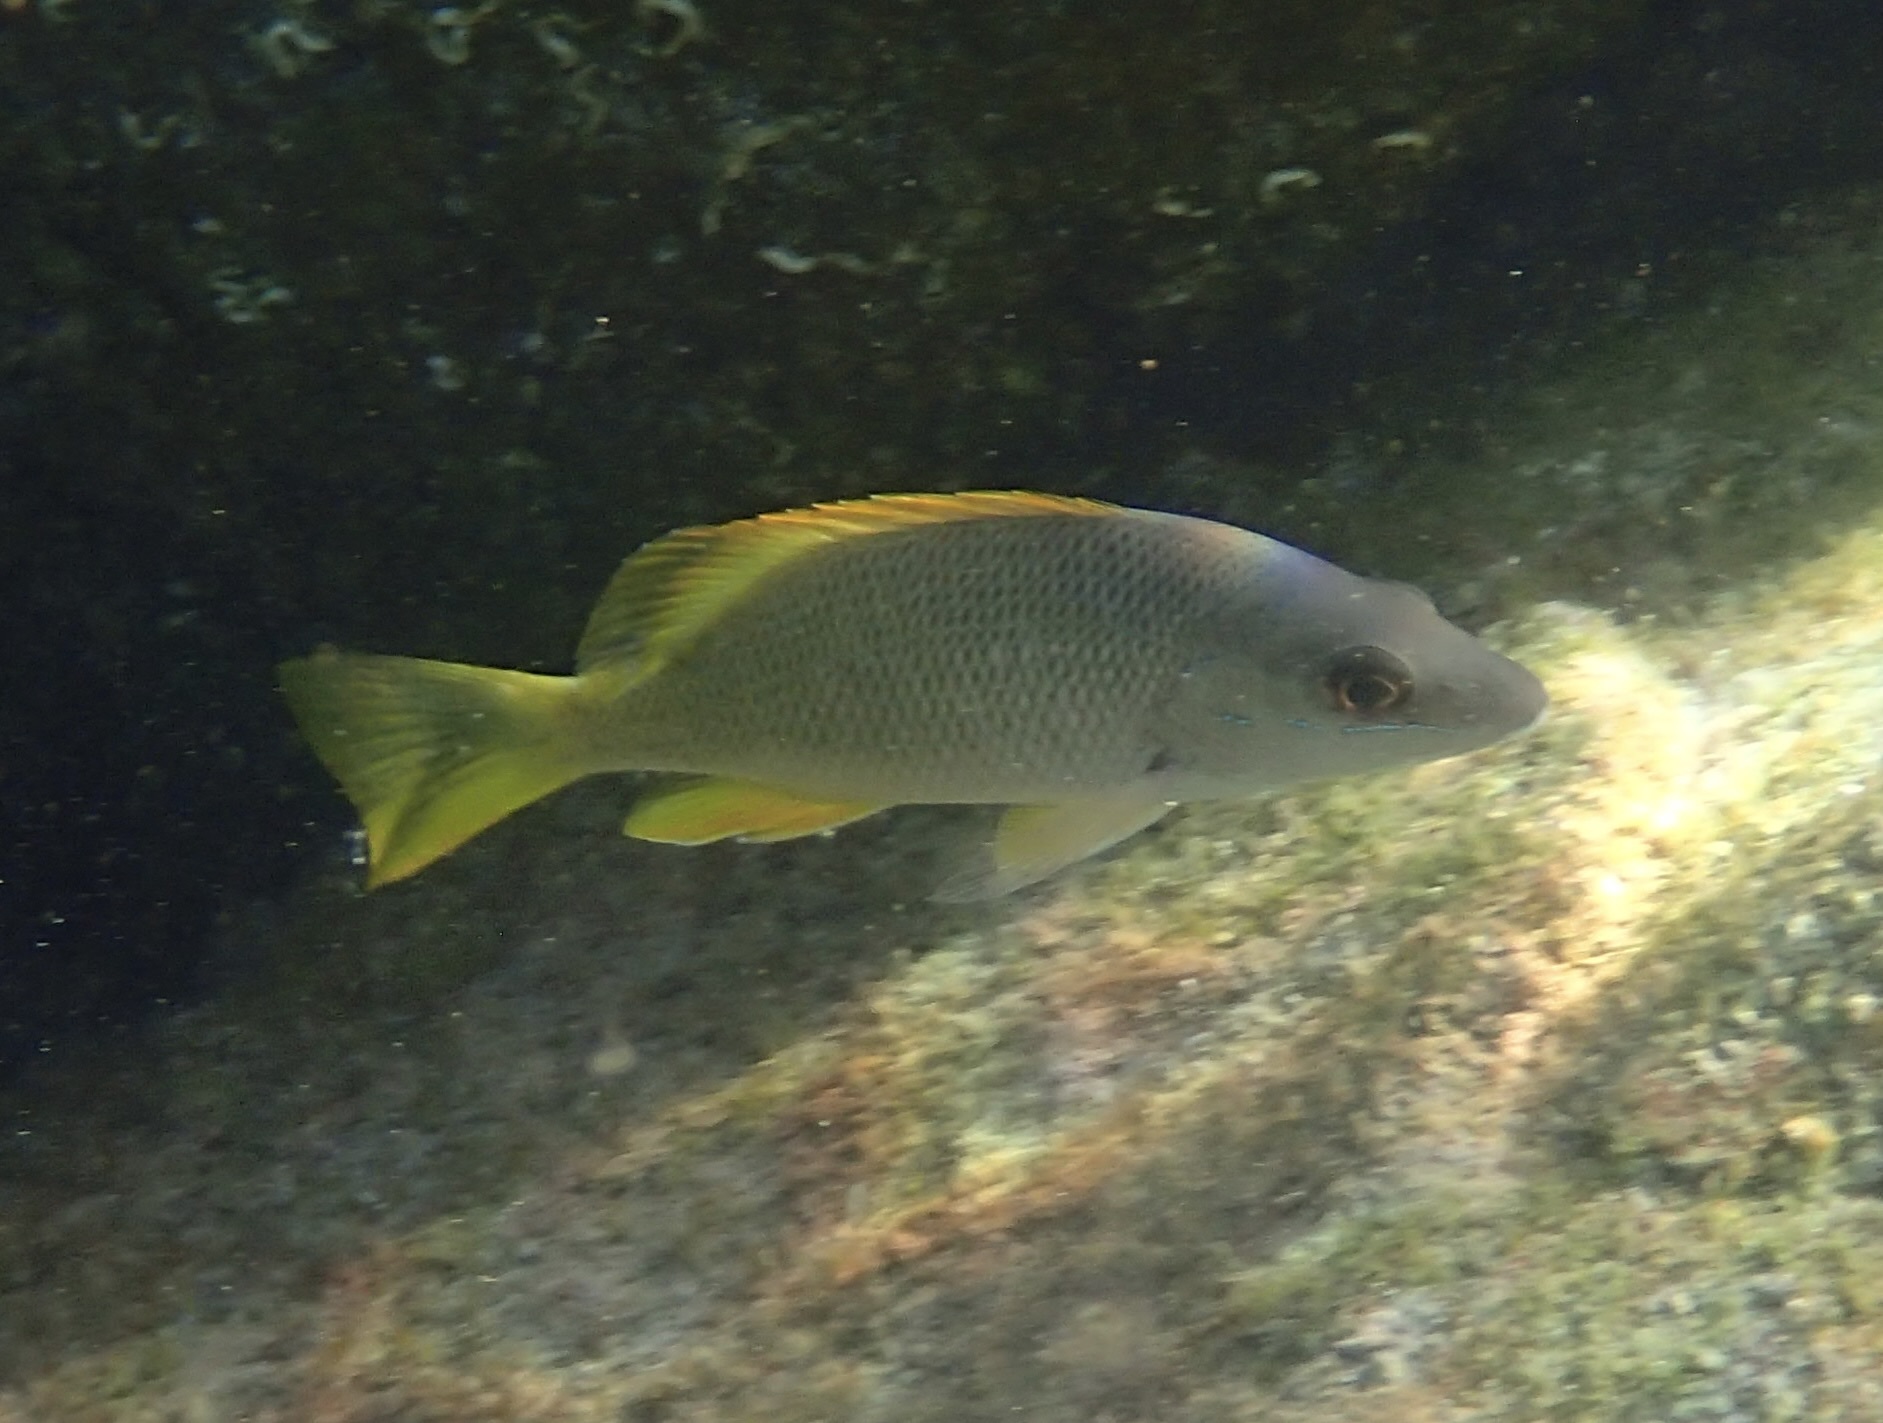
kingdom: Animalia
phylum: Chordata
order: Perciformes
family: Lutjanidae
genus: Lutjanus
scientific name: Lutjanus argentiventris
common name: Yellow snapper
